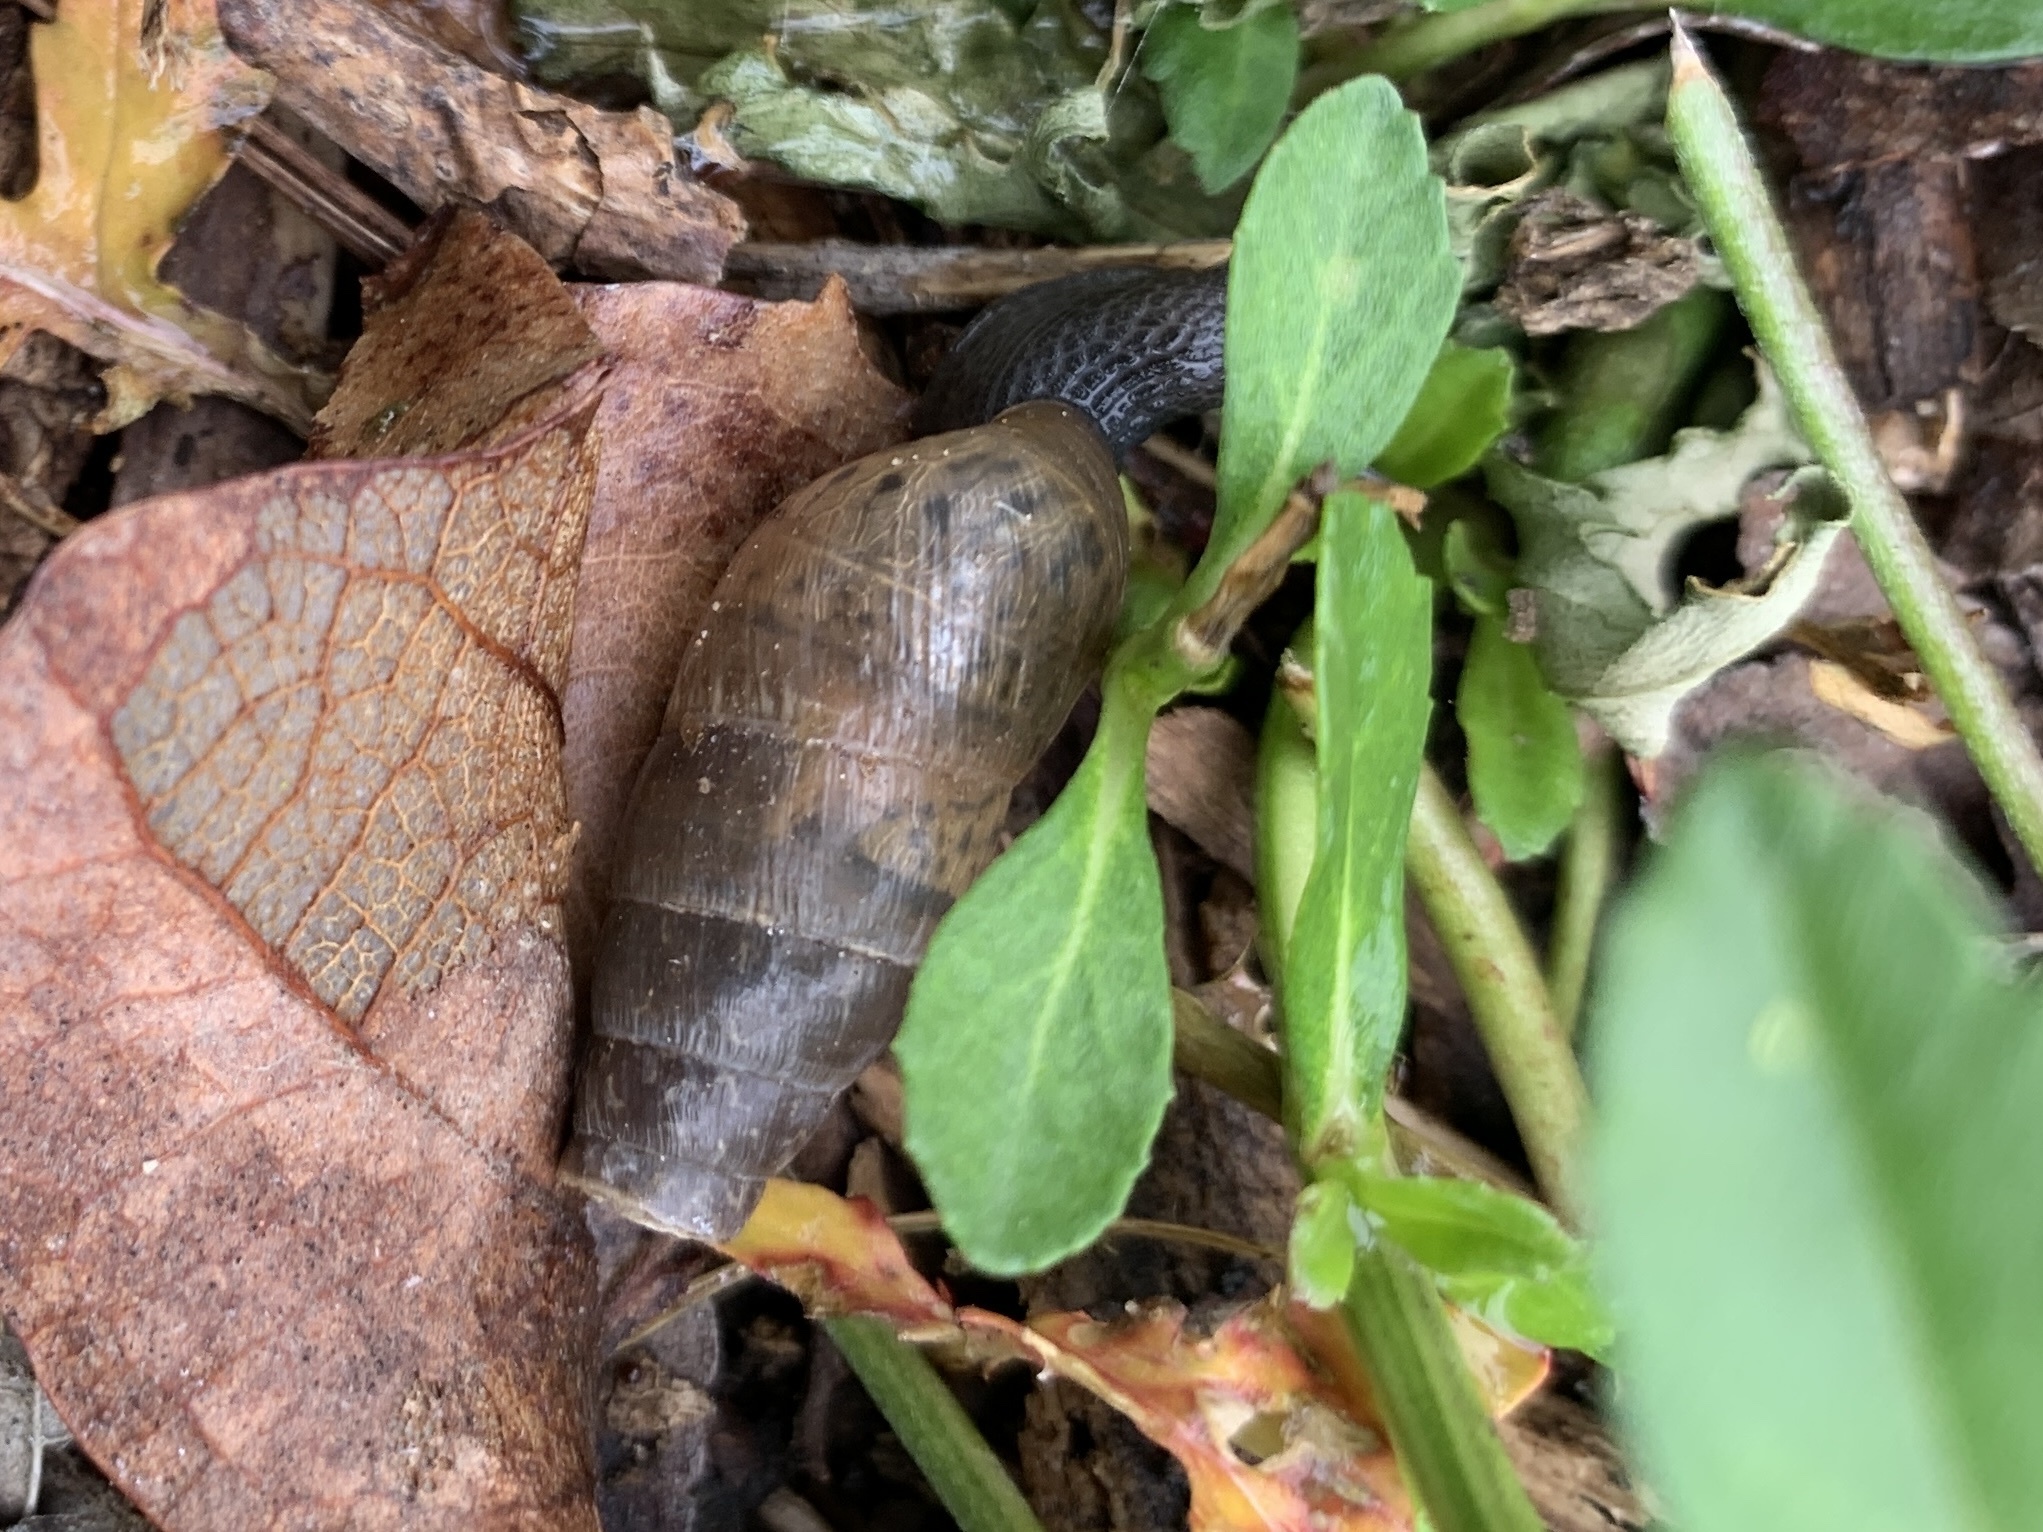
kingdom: Animalia
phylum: Mollusca
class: Gastropoda
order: Stylommatophora
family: Achatinidae
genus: Rumina
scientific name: Rumina decollata
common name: Decollate snail
